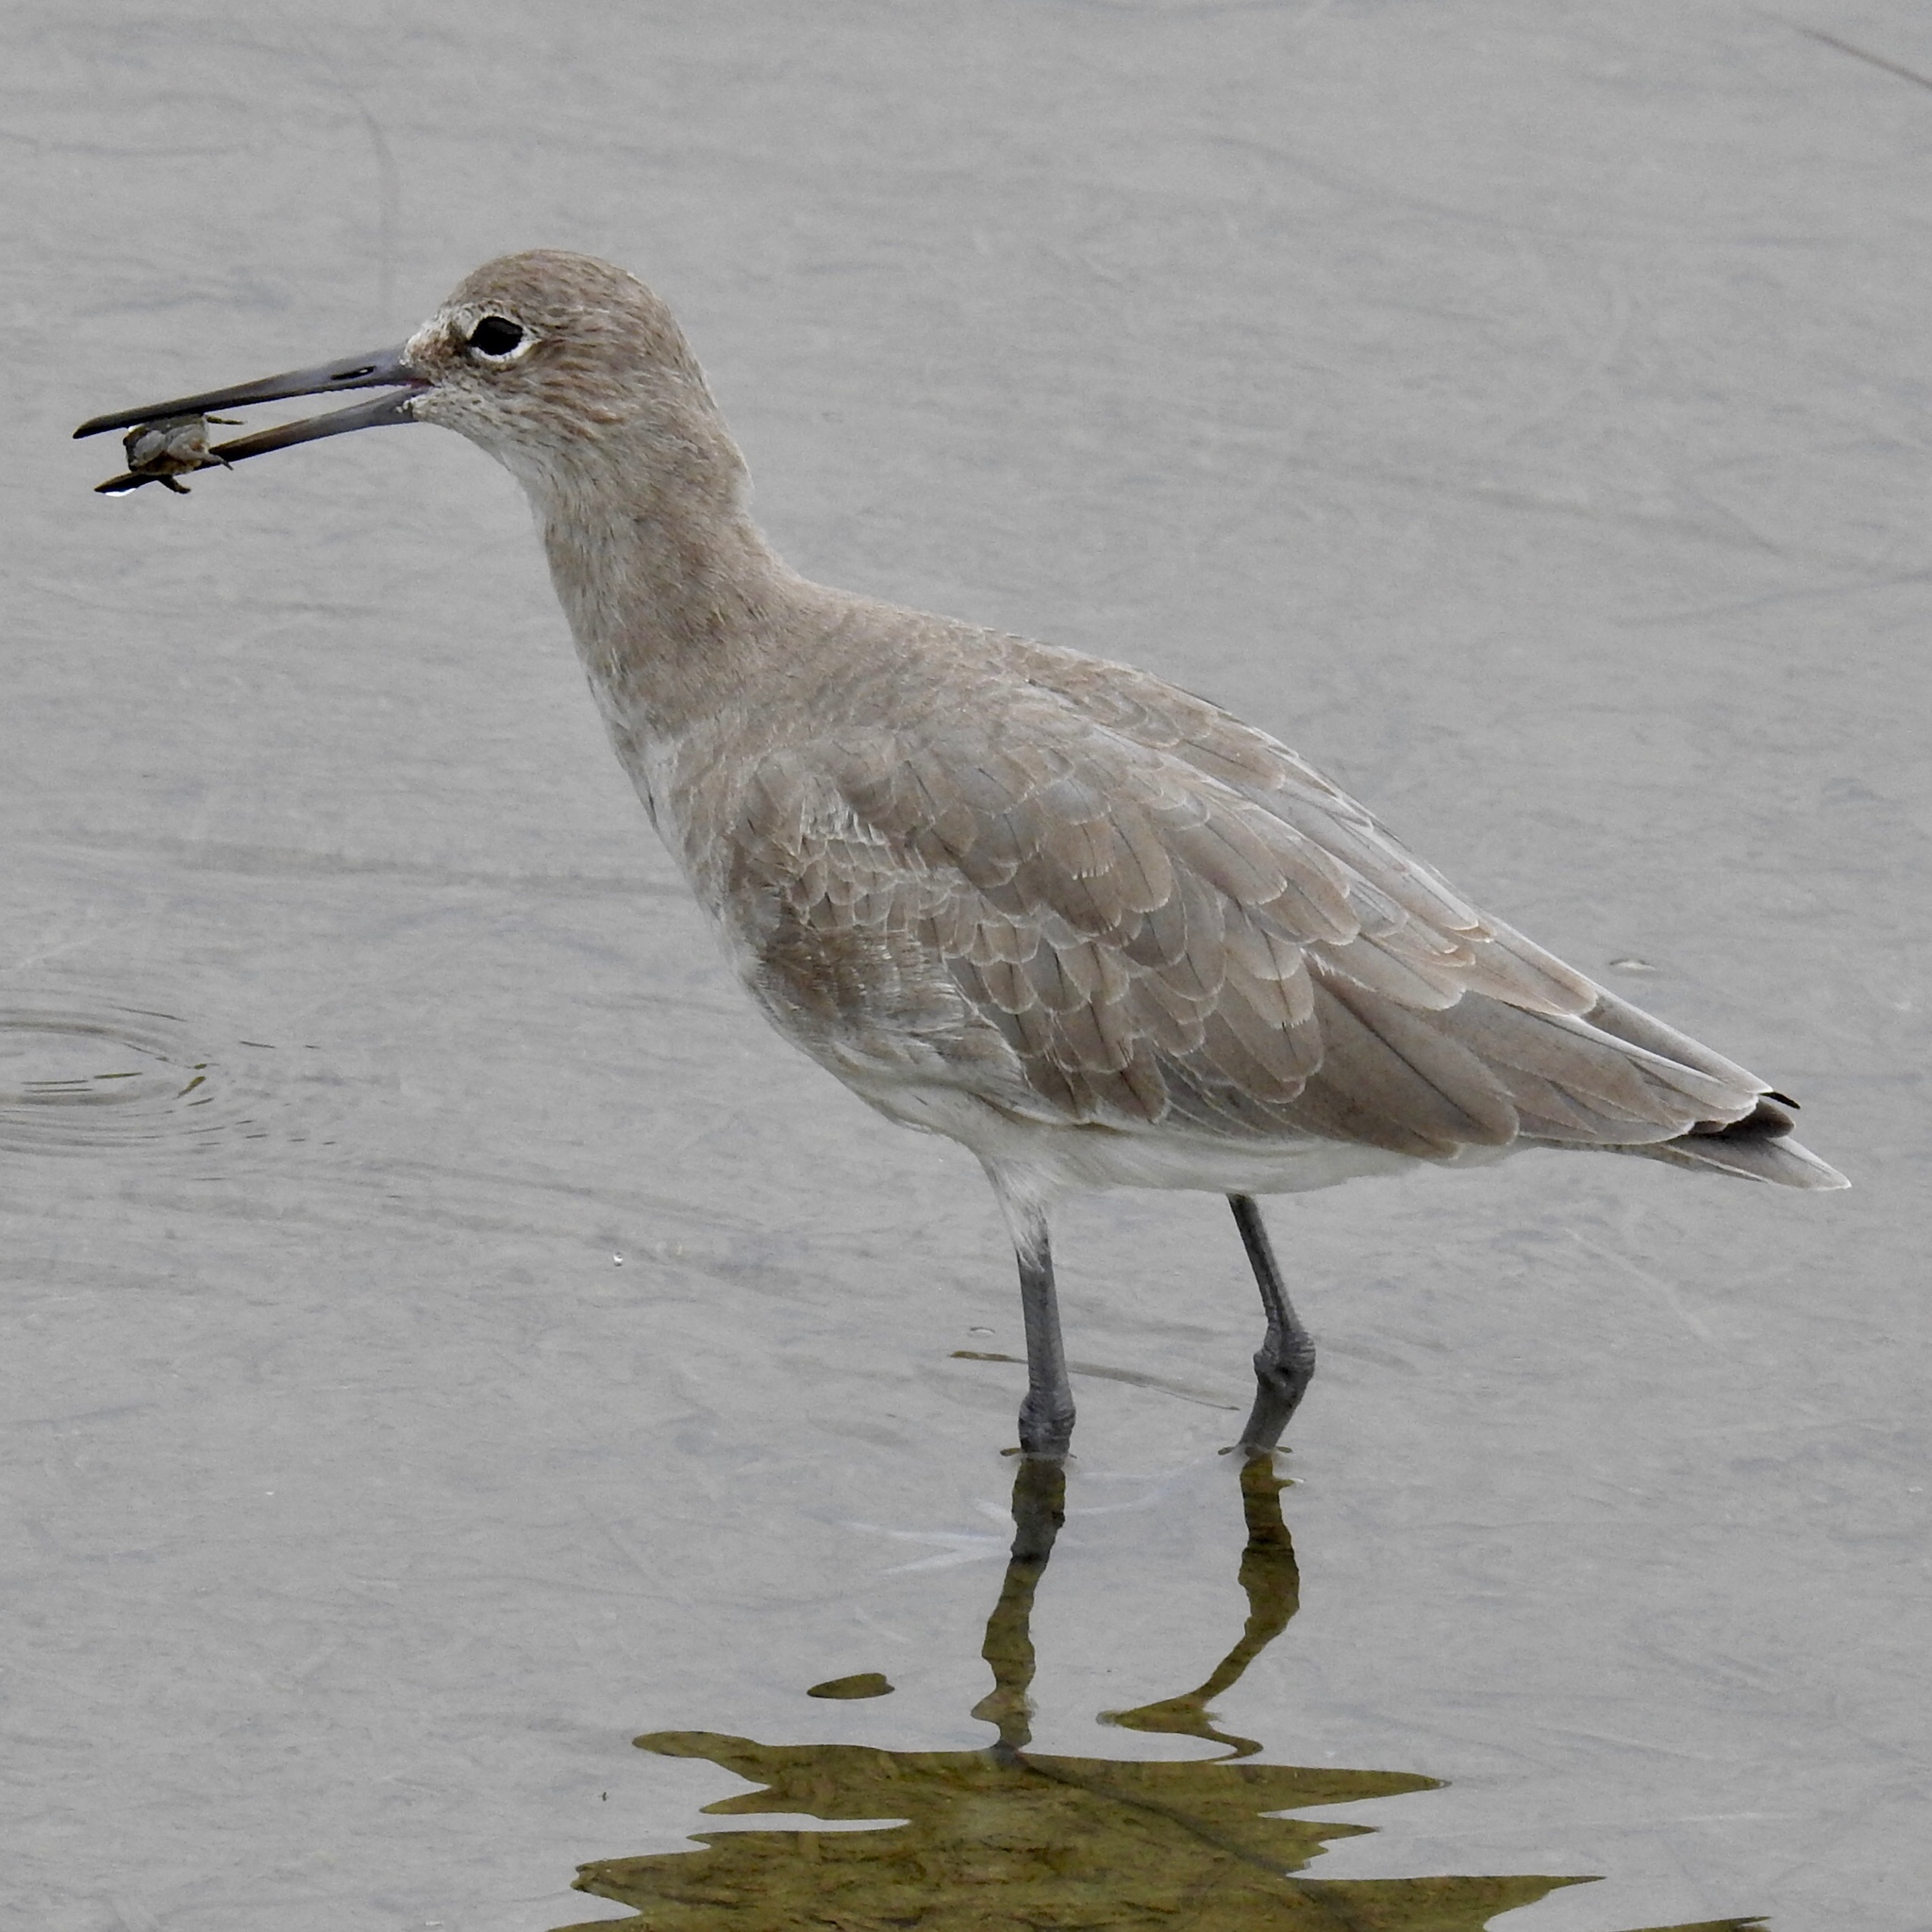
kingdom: Animalia
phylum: Chordata
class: Aves
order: Charadriiformes
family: Scolopacidae
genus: Tringa
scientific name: Tringa semipalmata
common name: Willet
